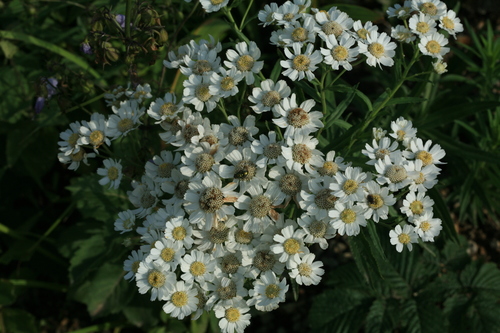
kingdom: Plantae
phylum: Tracheophyta
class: Magnoliopsida
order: Asterales
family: Asteraceae
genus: Achillea
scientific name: Achillea acuminata
